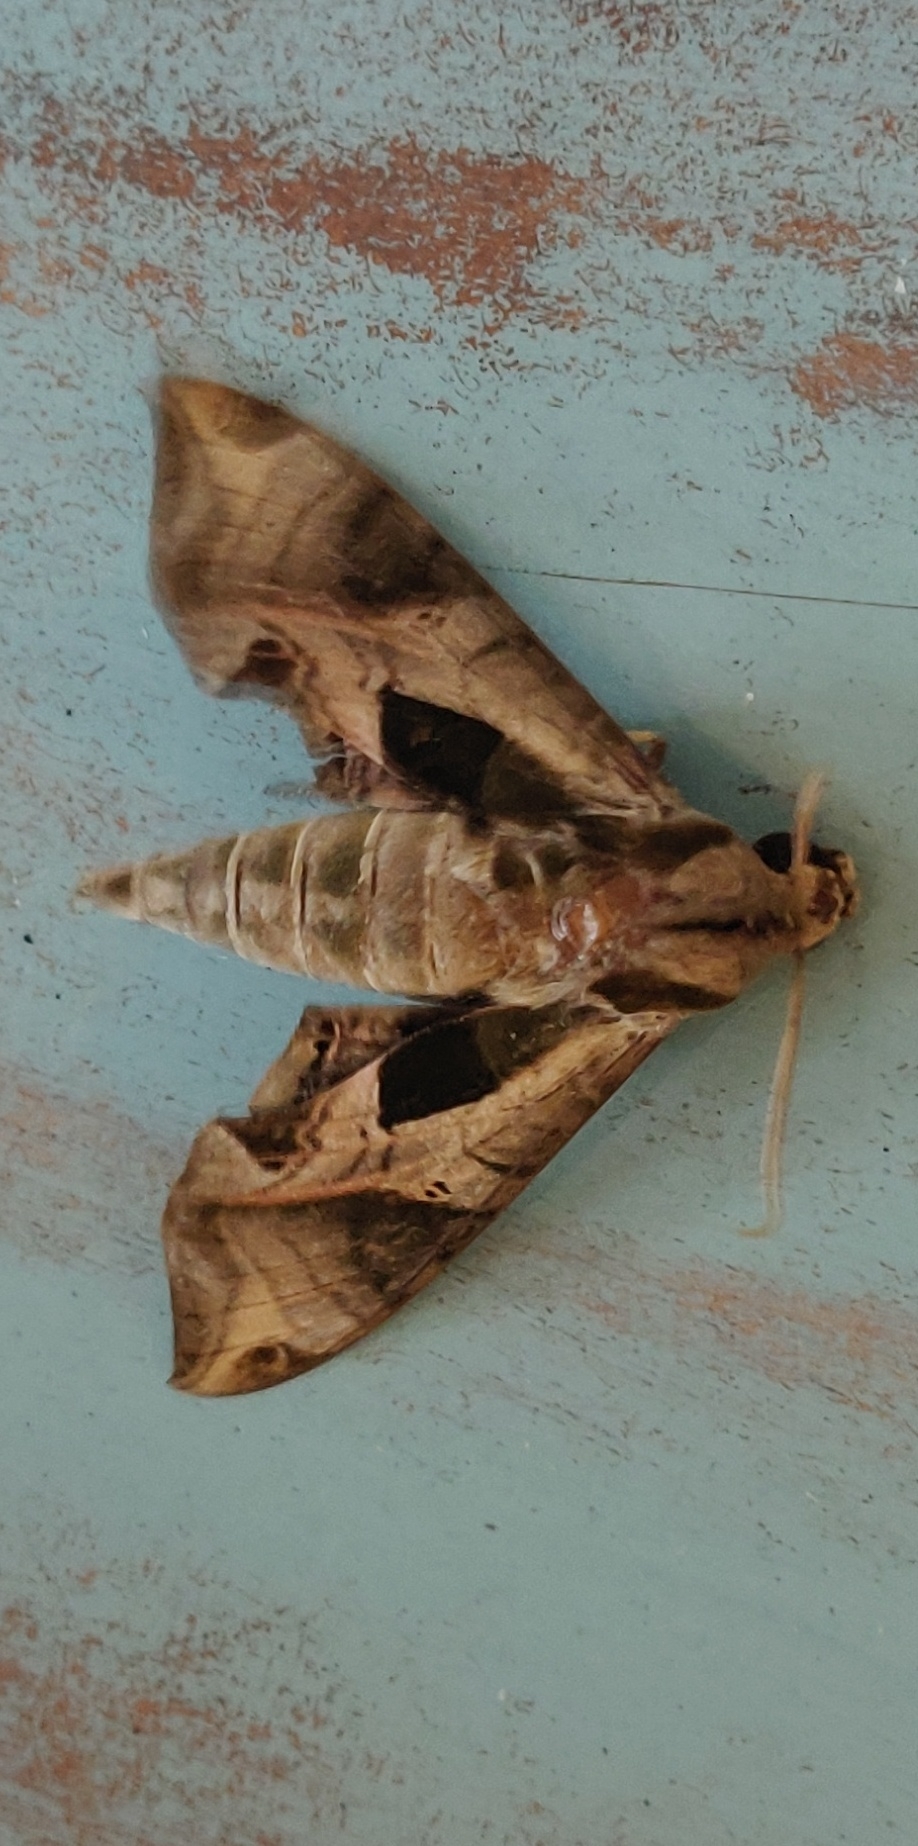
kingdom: Animalia
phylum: Arthropoda
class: Insecta
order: Lepidoptera
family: Sphingidae
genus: Eumorpha
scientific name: Eumorpha pandorus
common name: Pandora sphinx
